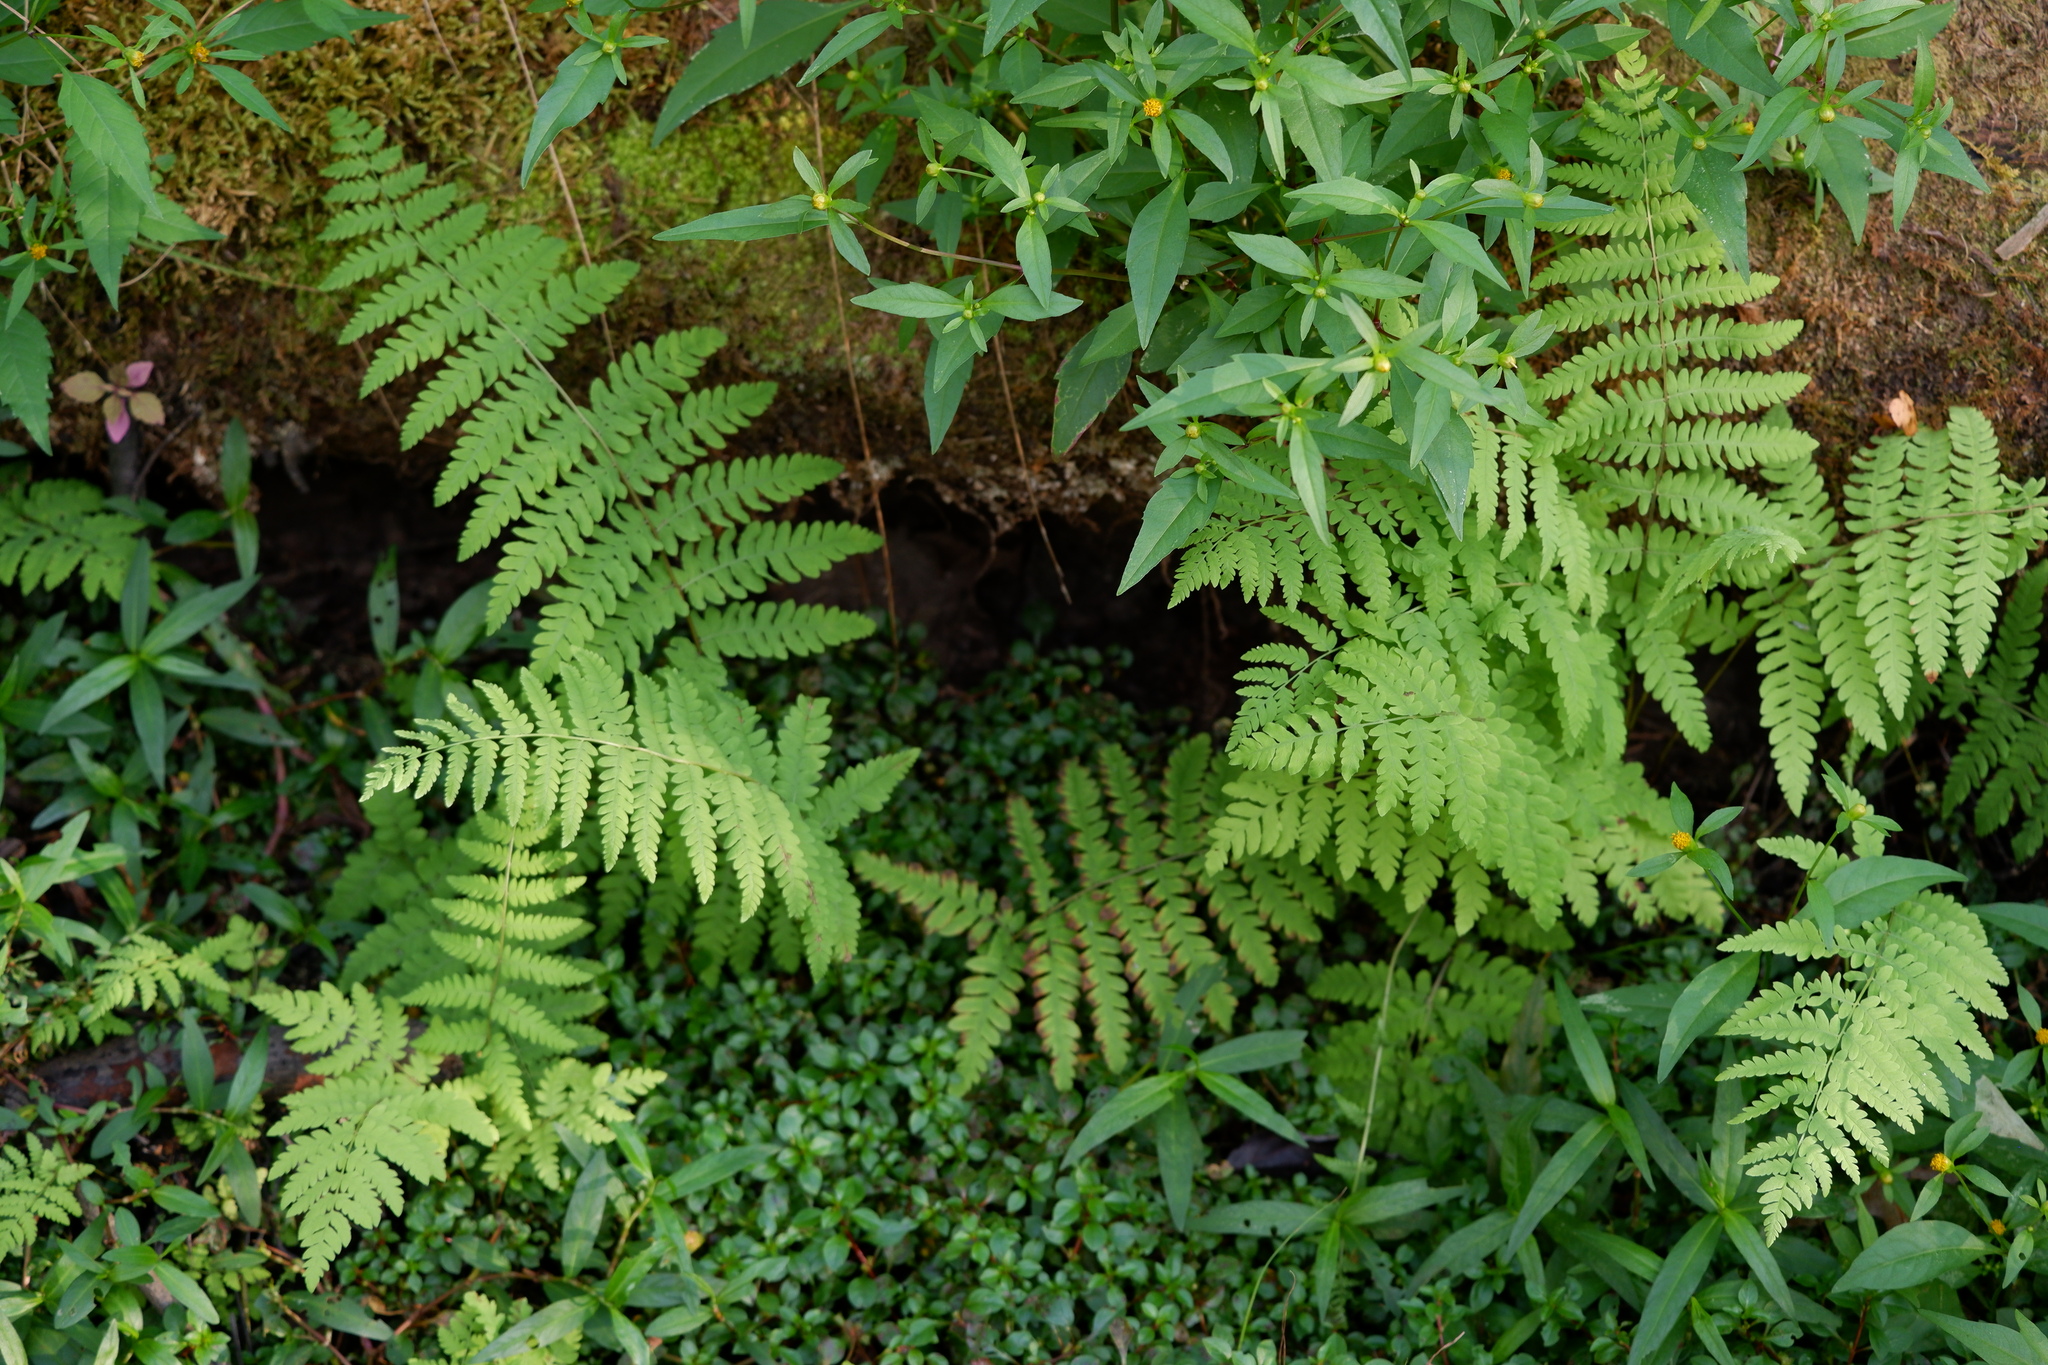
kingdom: Plantae
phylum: Tracheophyta
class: Polypodiopsida
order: Polypodiales
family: Thelypteridaceae
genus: Thelypteris
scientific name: Thelypteris palustris
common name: Marsh fern
